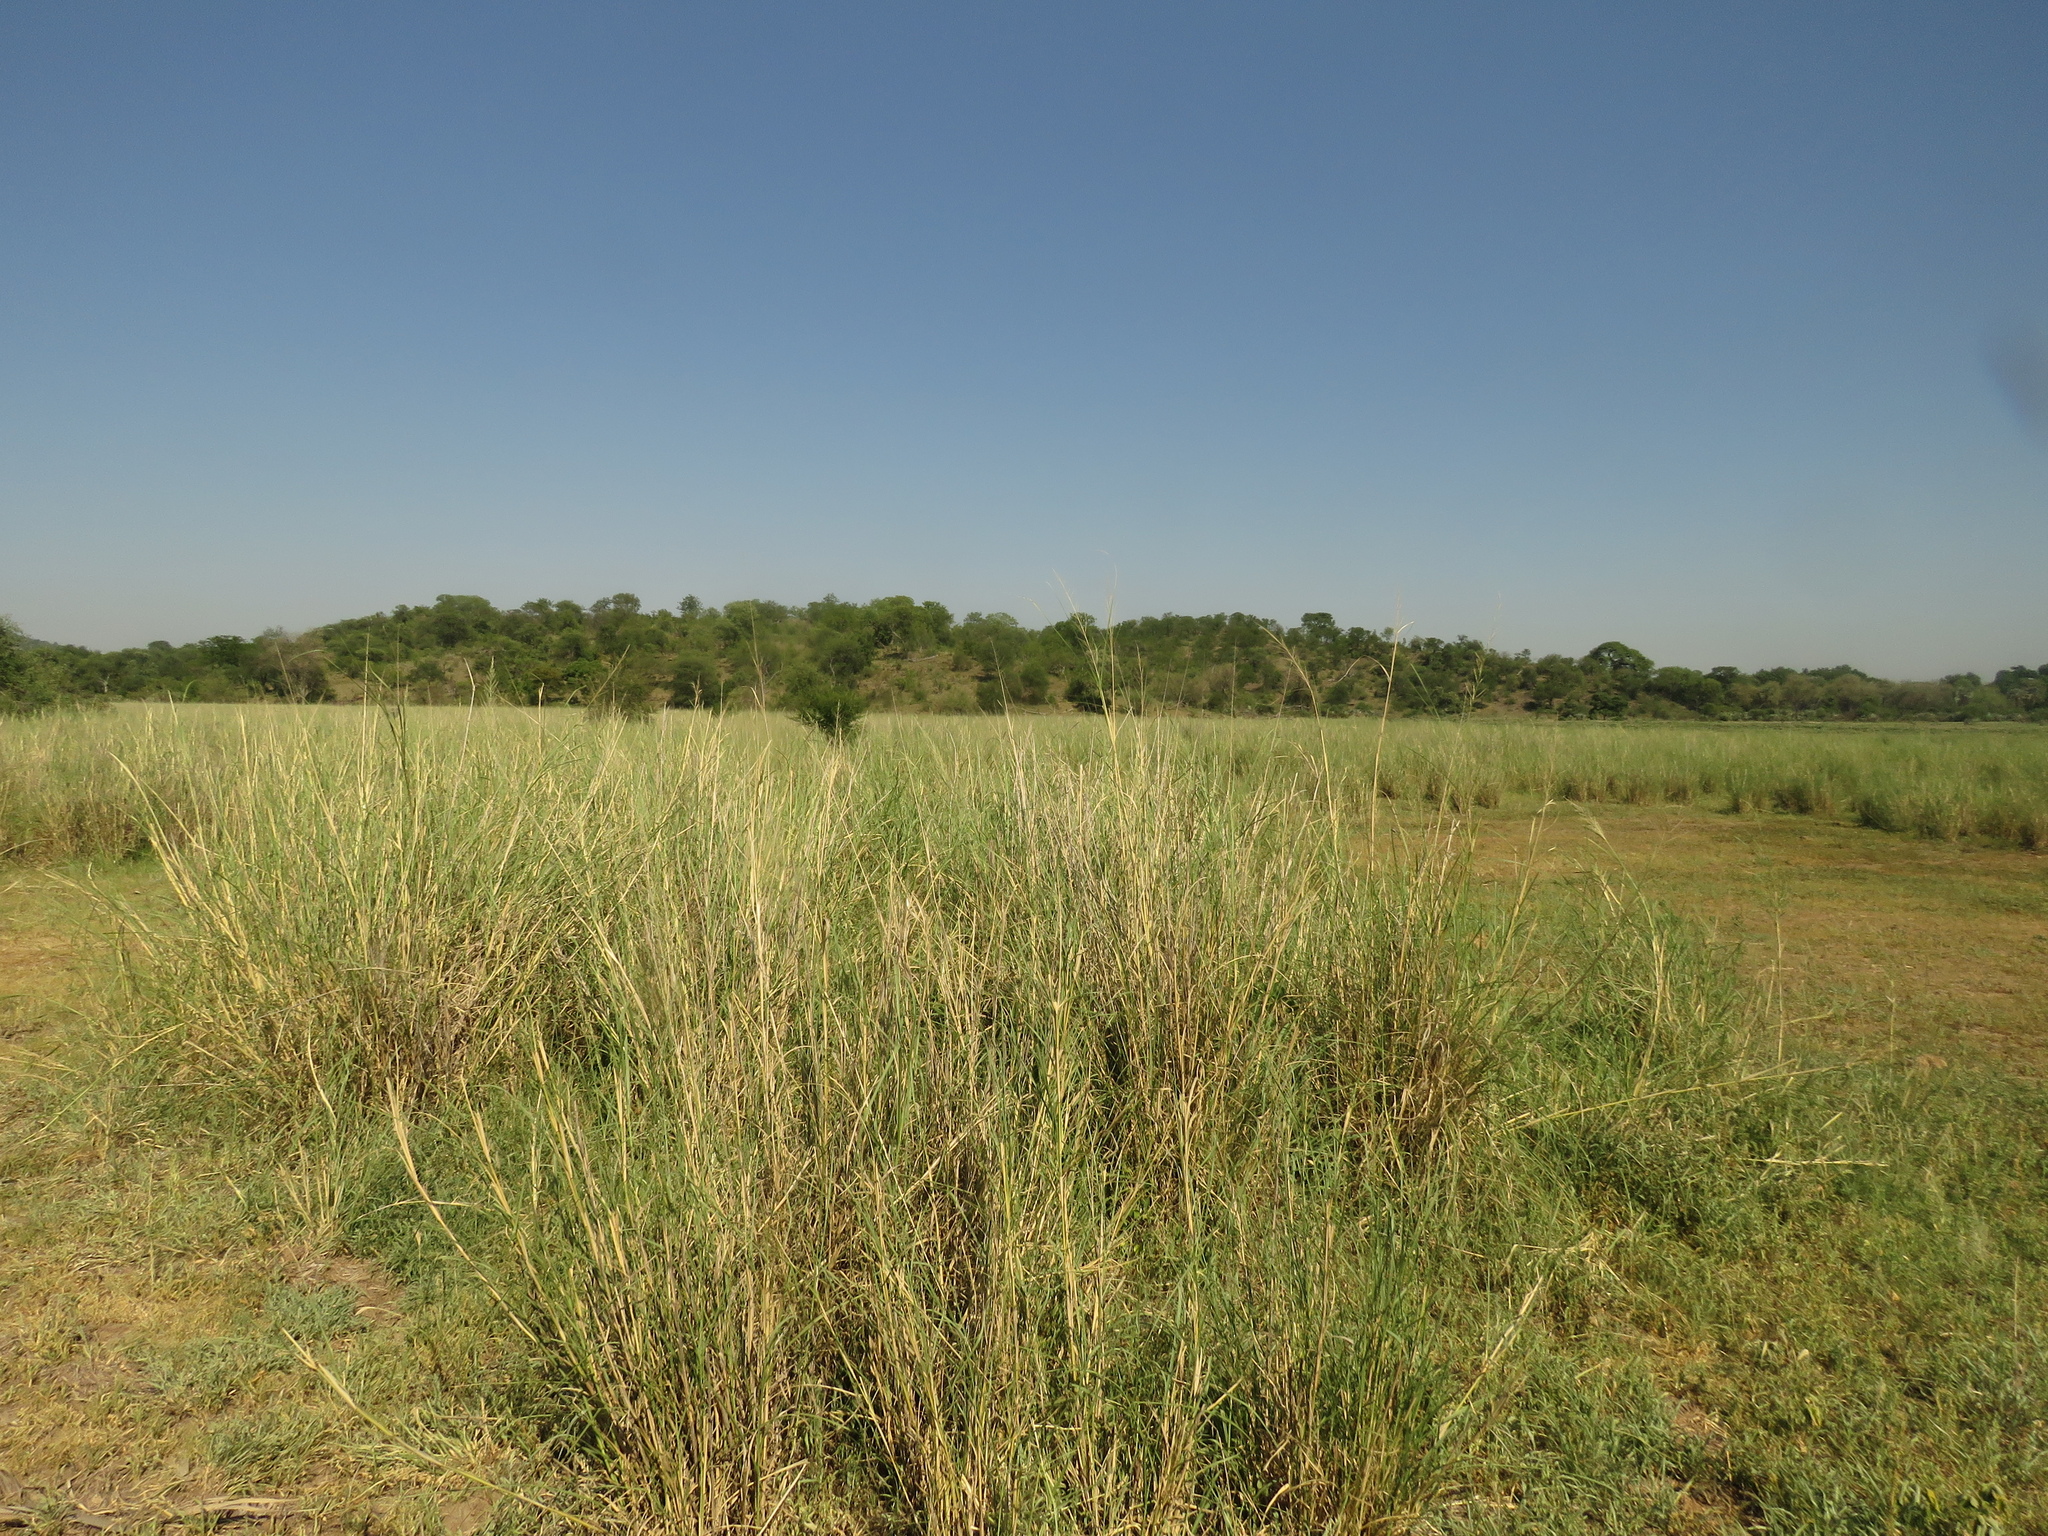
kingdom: Plantae
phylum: Tracheophyta
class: Liliopsida
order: Poales
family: Poaceae
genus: Sporobolus
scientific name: Sporobolus consimilis
